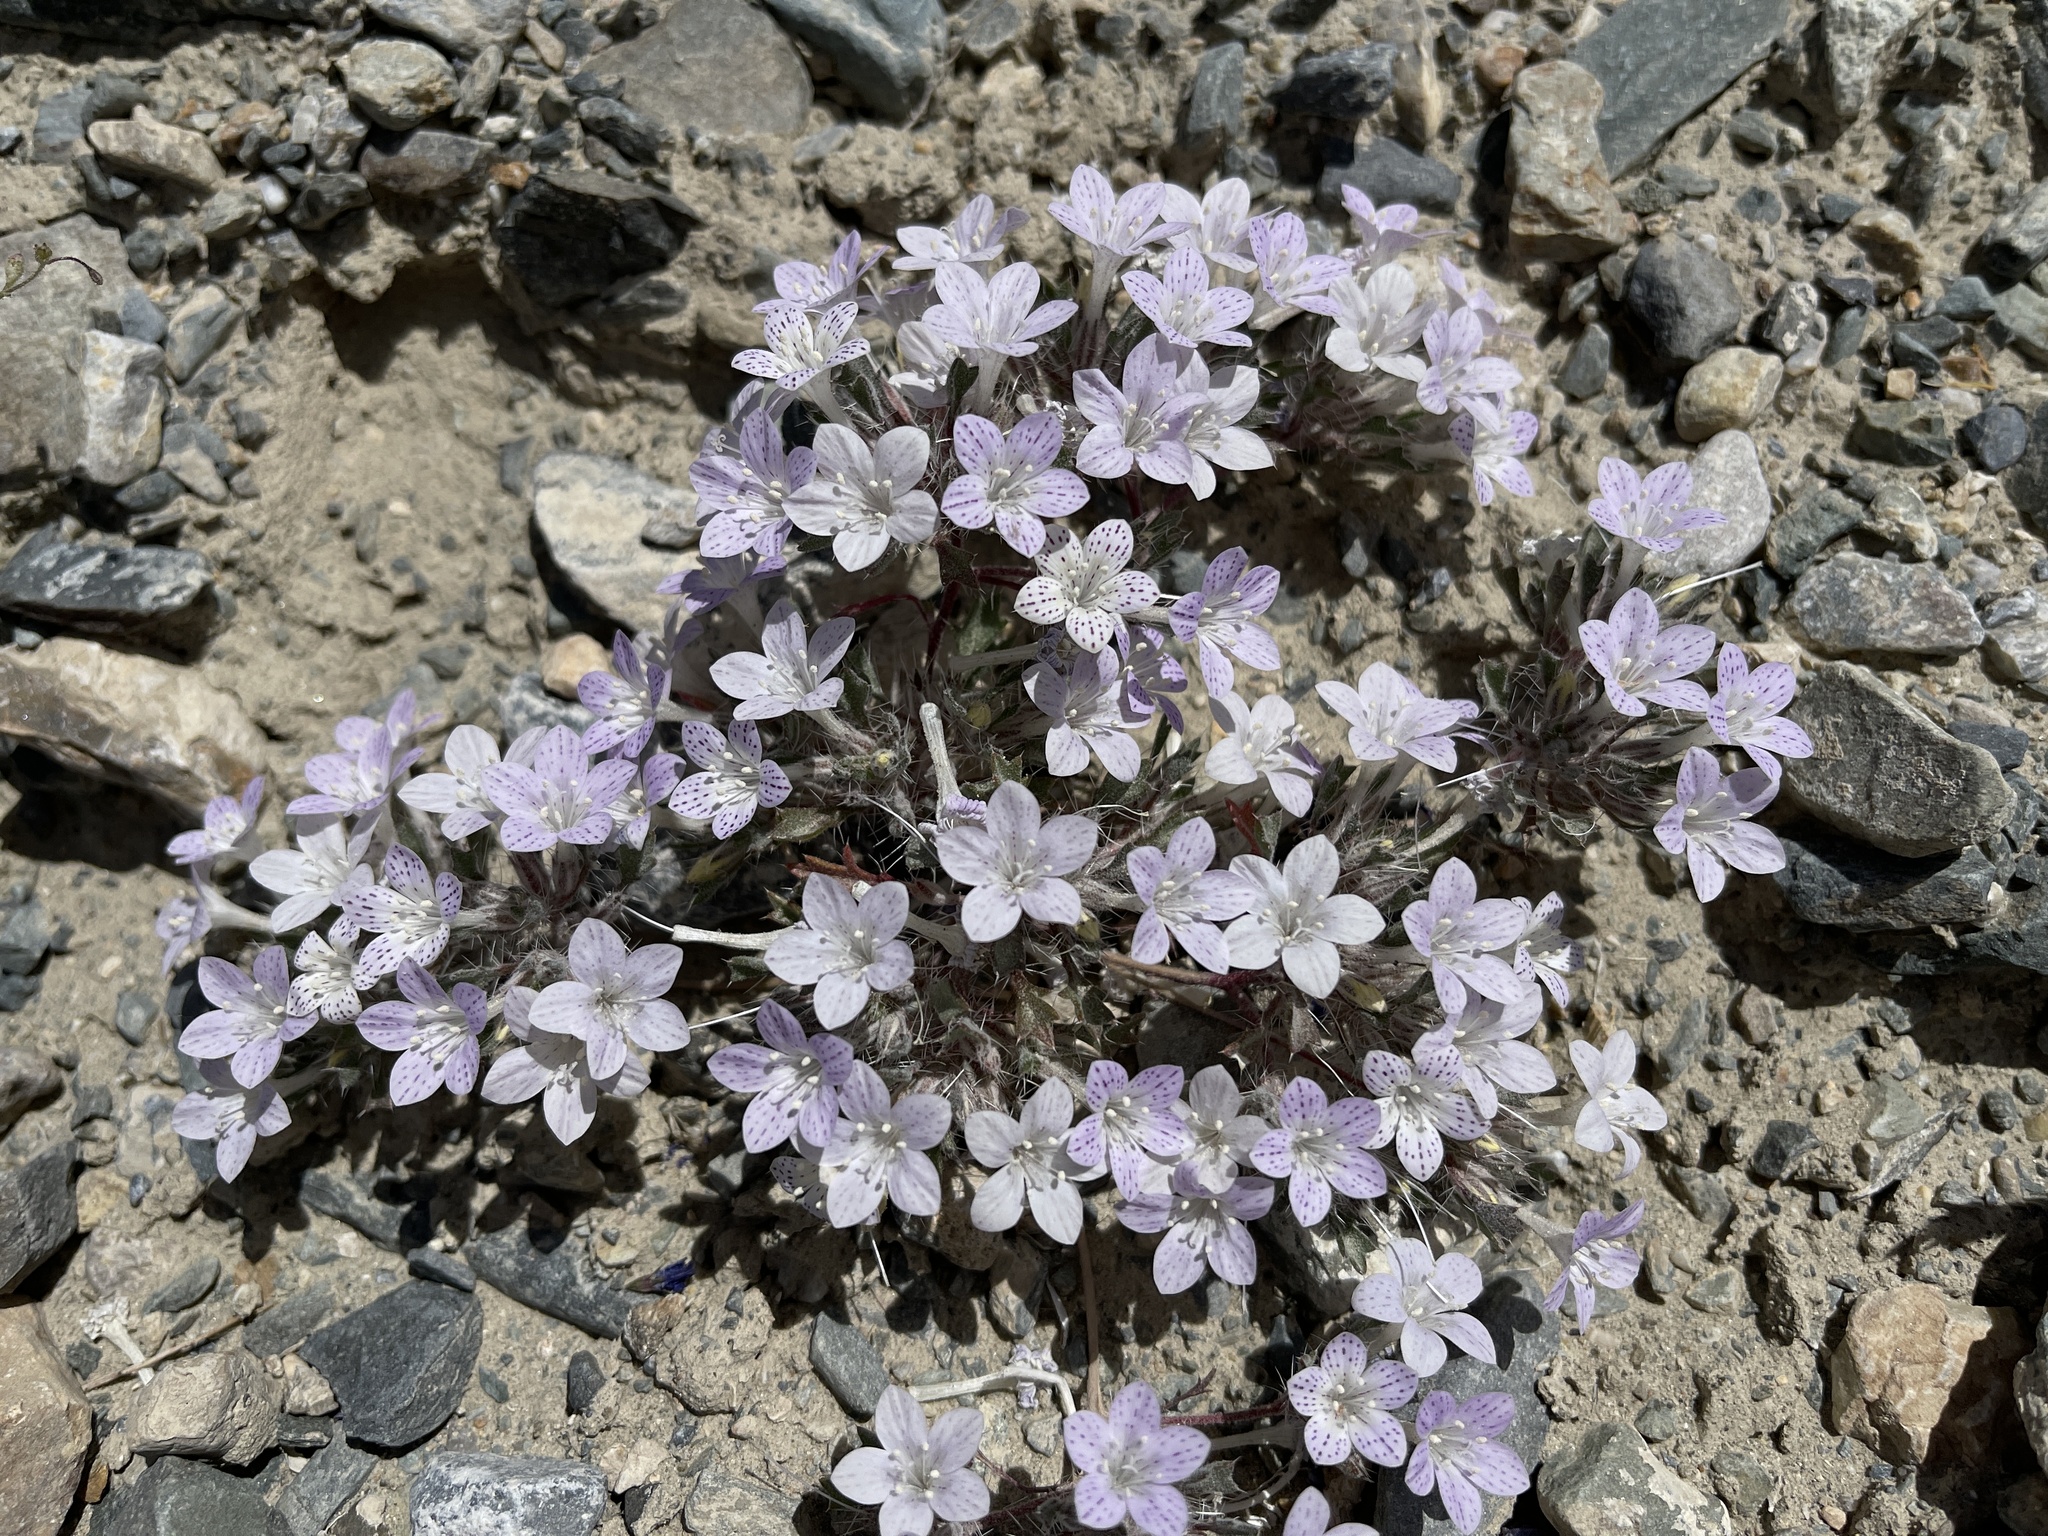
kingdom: Plantae
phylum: Tracheophyta
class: Magnoliopsida
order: Ericales
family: Polemoniaceae
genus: Langloisia
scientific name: Langloisia setosissima
